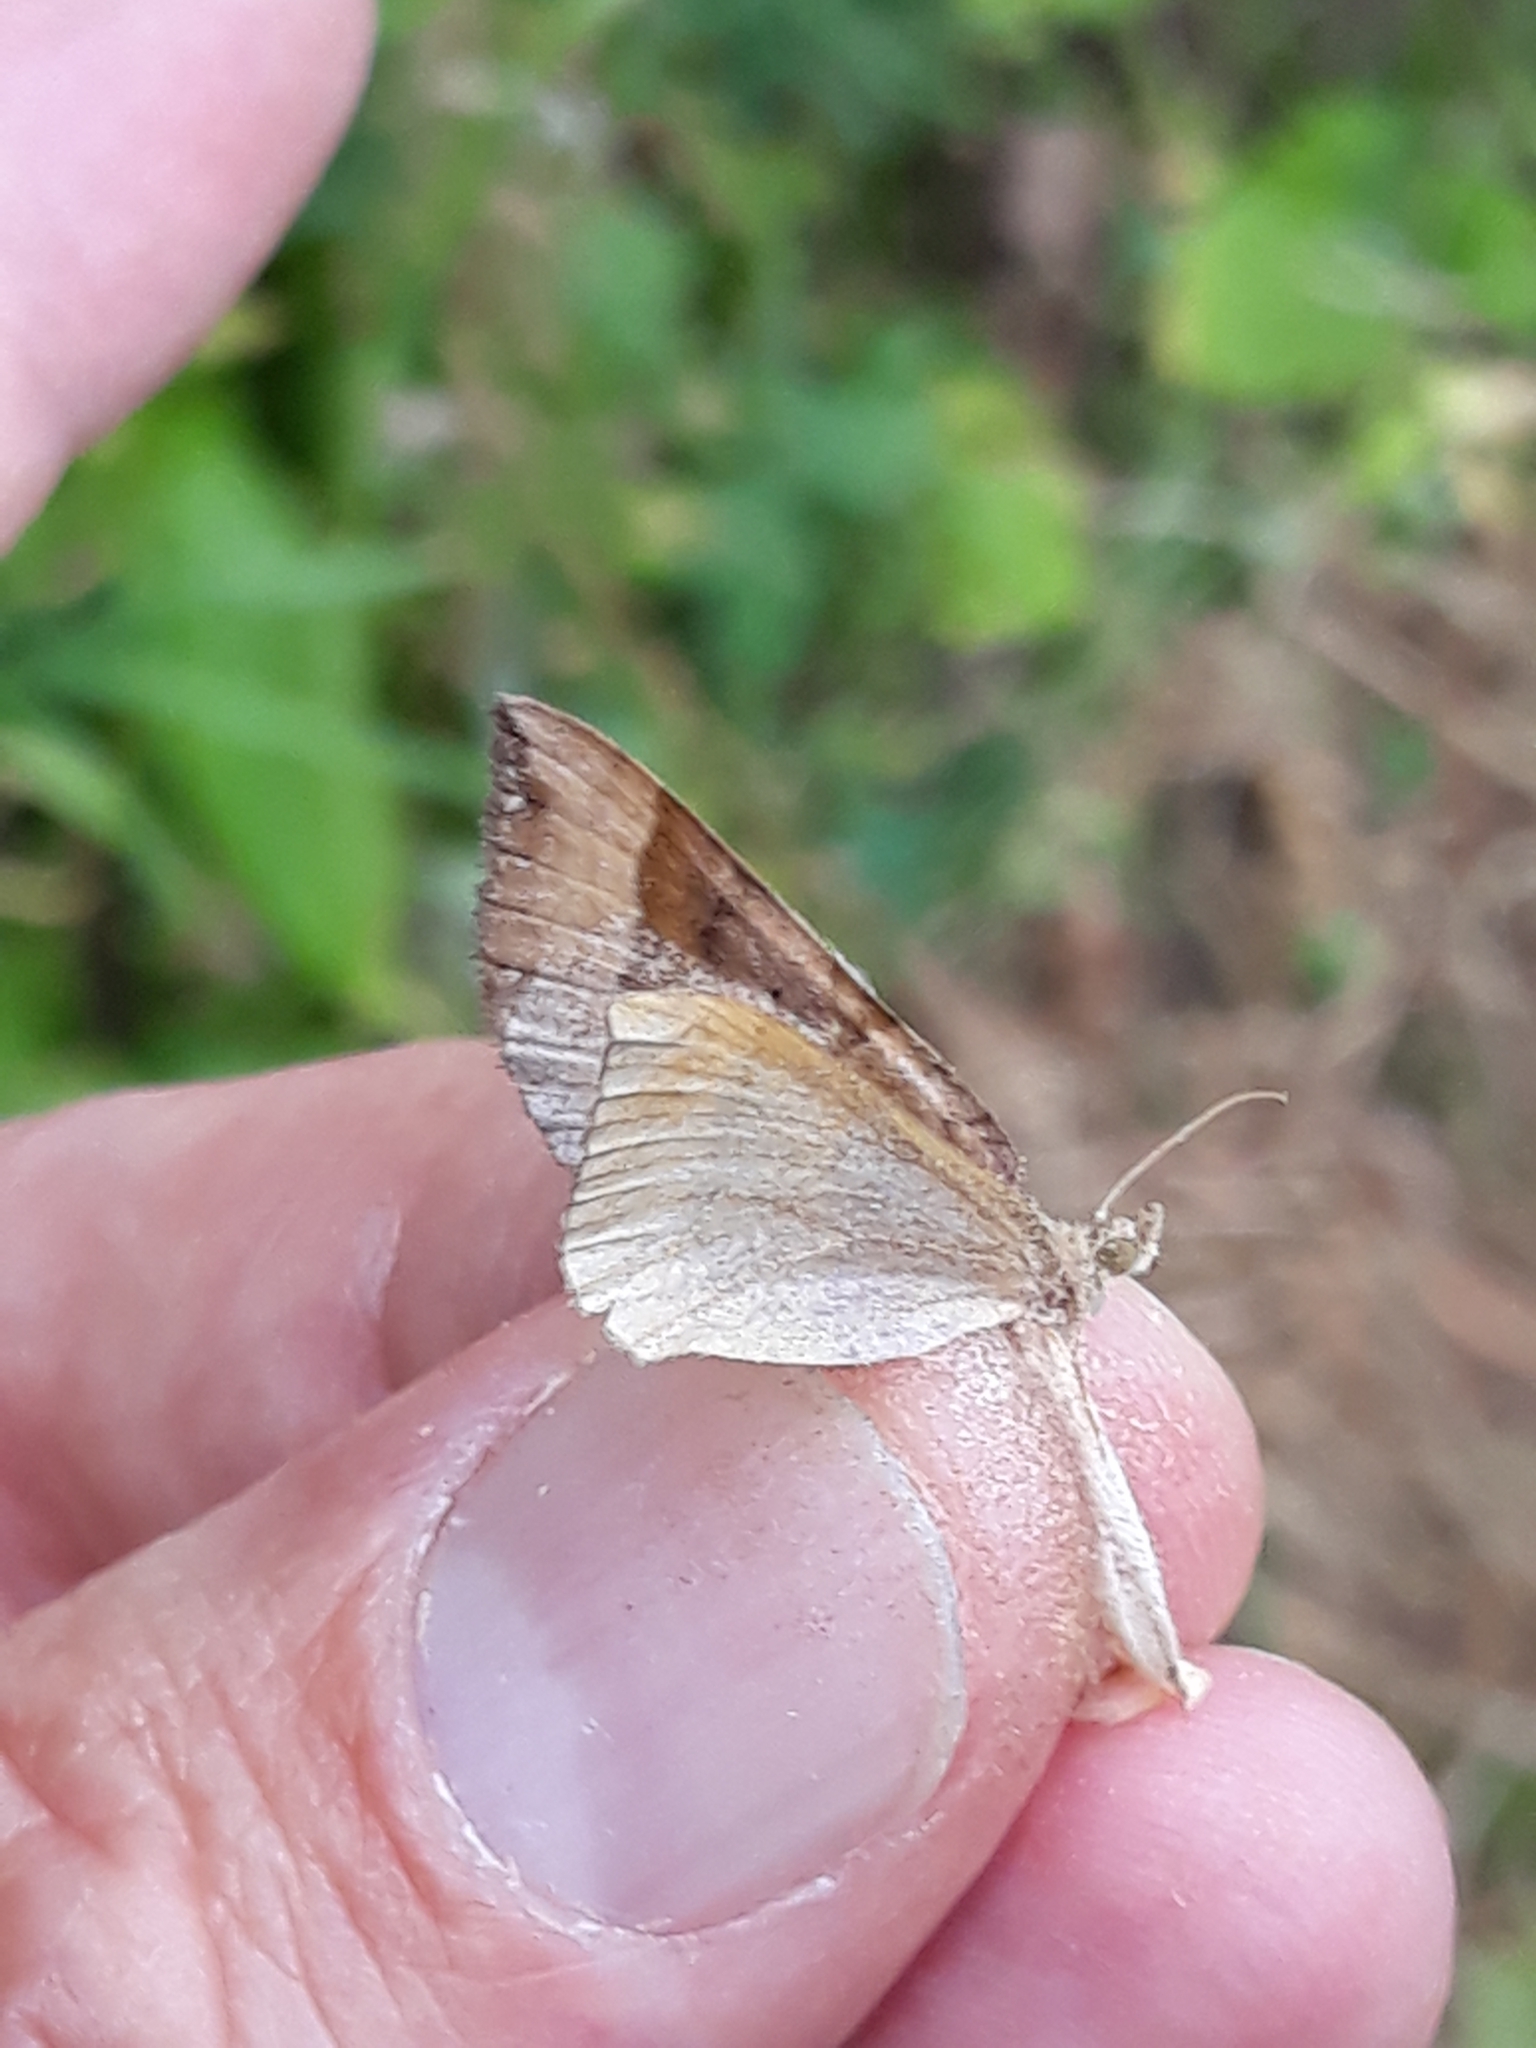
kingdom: Animalia
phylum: Arthropoda
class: Insecta
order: Lepidoptera
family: Geometridae
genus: Scotopteryx
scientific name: Scotopteryx chenopodiata
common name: Shaded broad-bar
